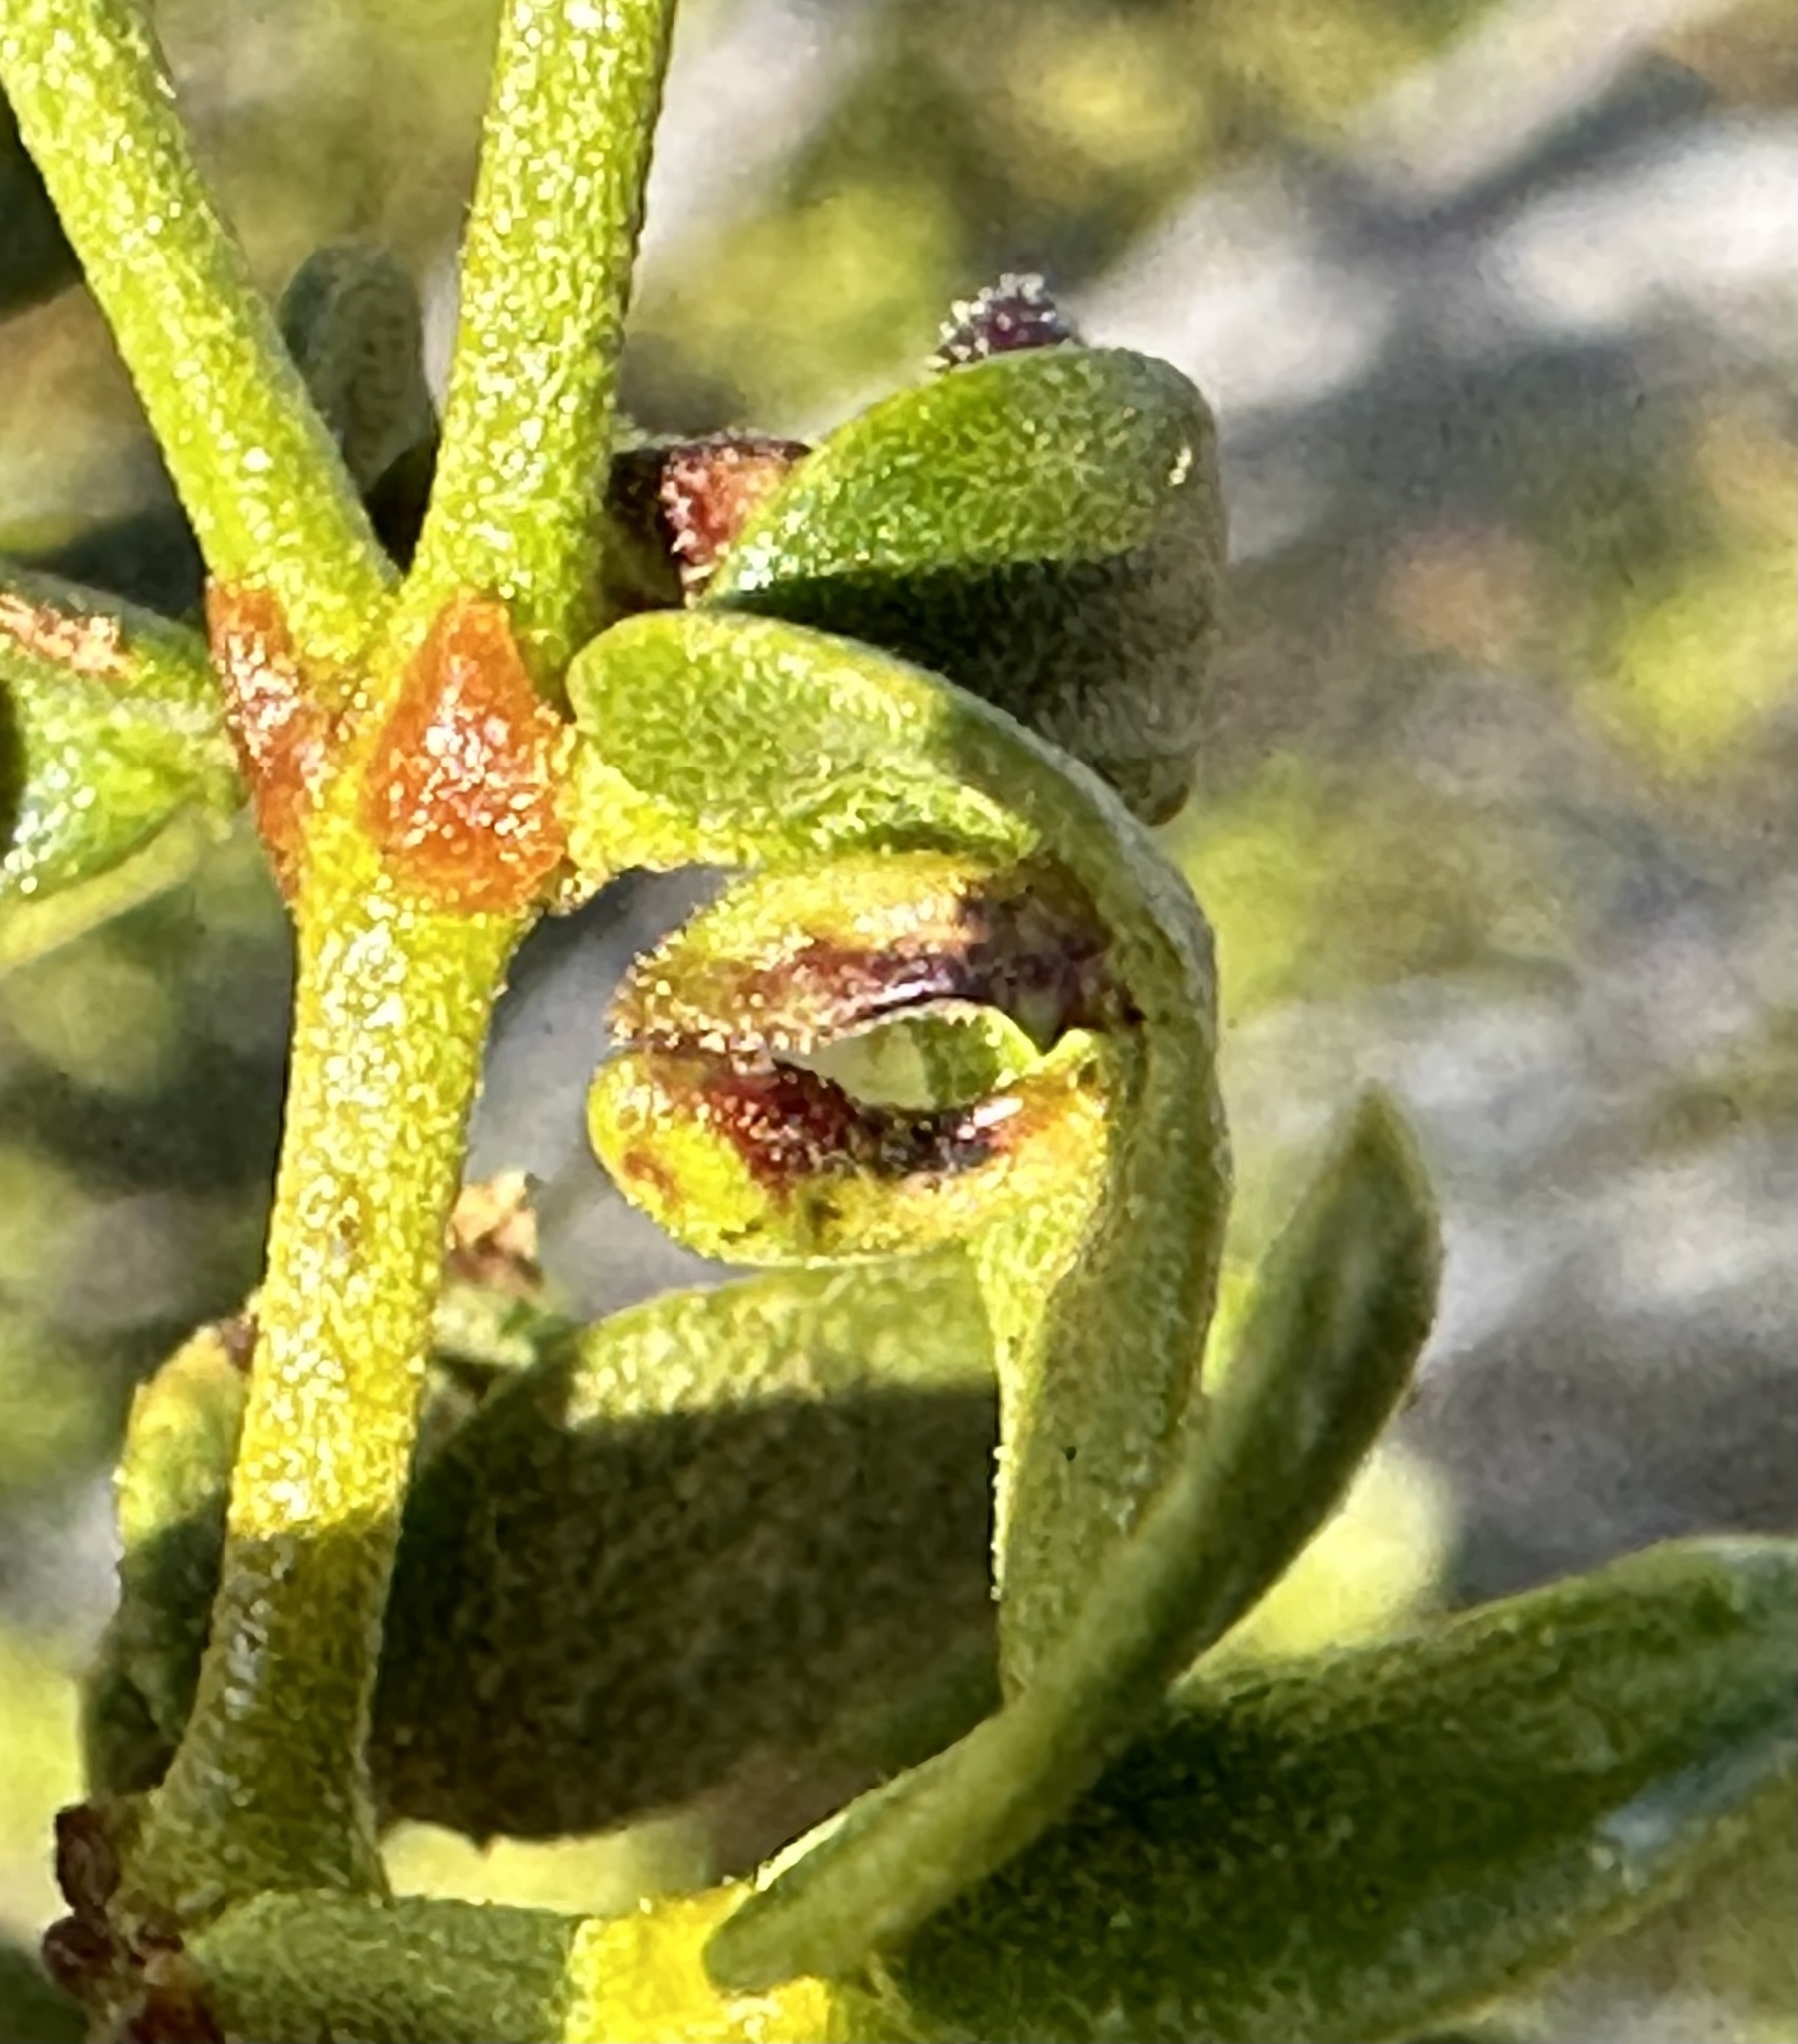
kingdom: Animalia
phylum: Arthropoda
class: Insecta
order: Diptera
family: Cecidomyiidae
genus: Asphondylia
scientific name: Asphondylia clavata
